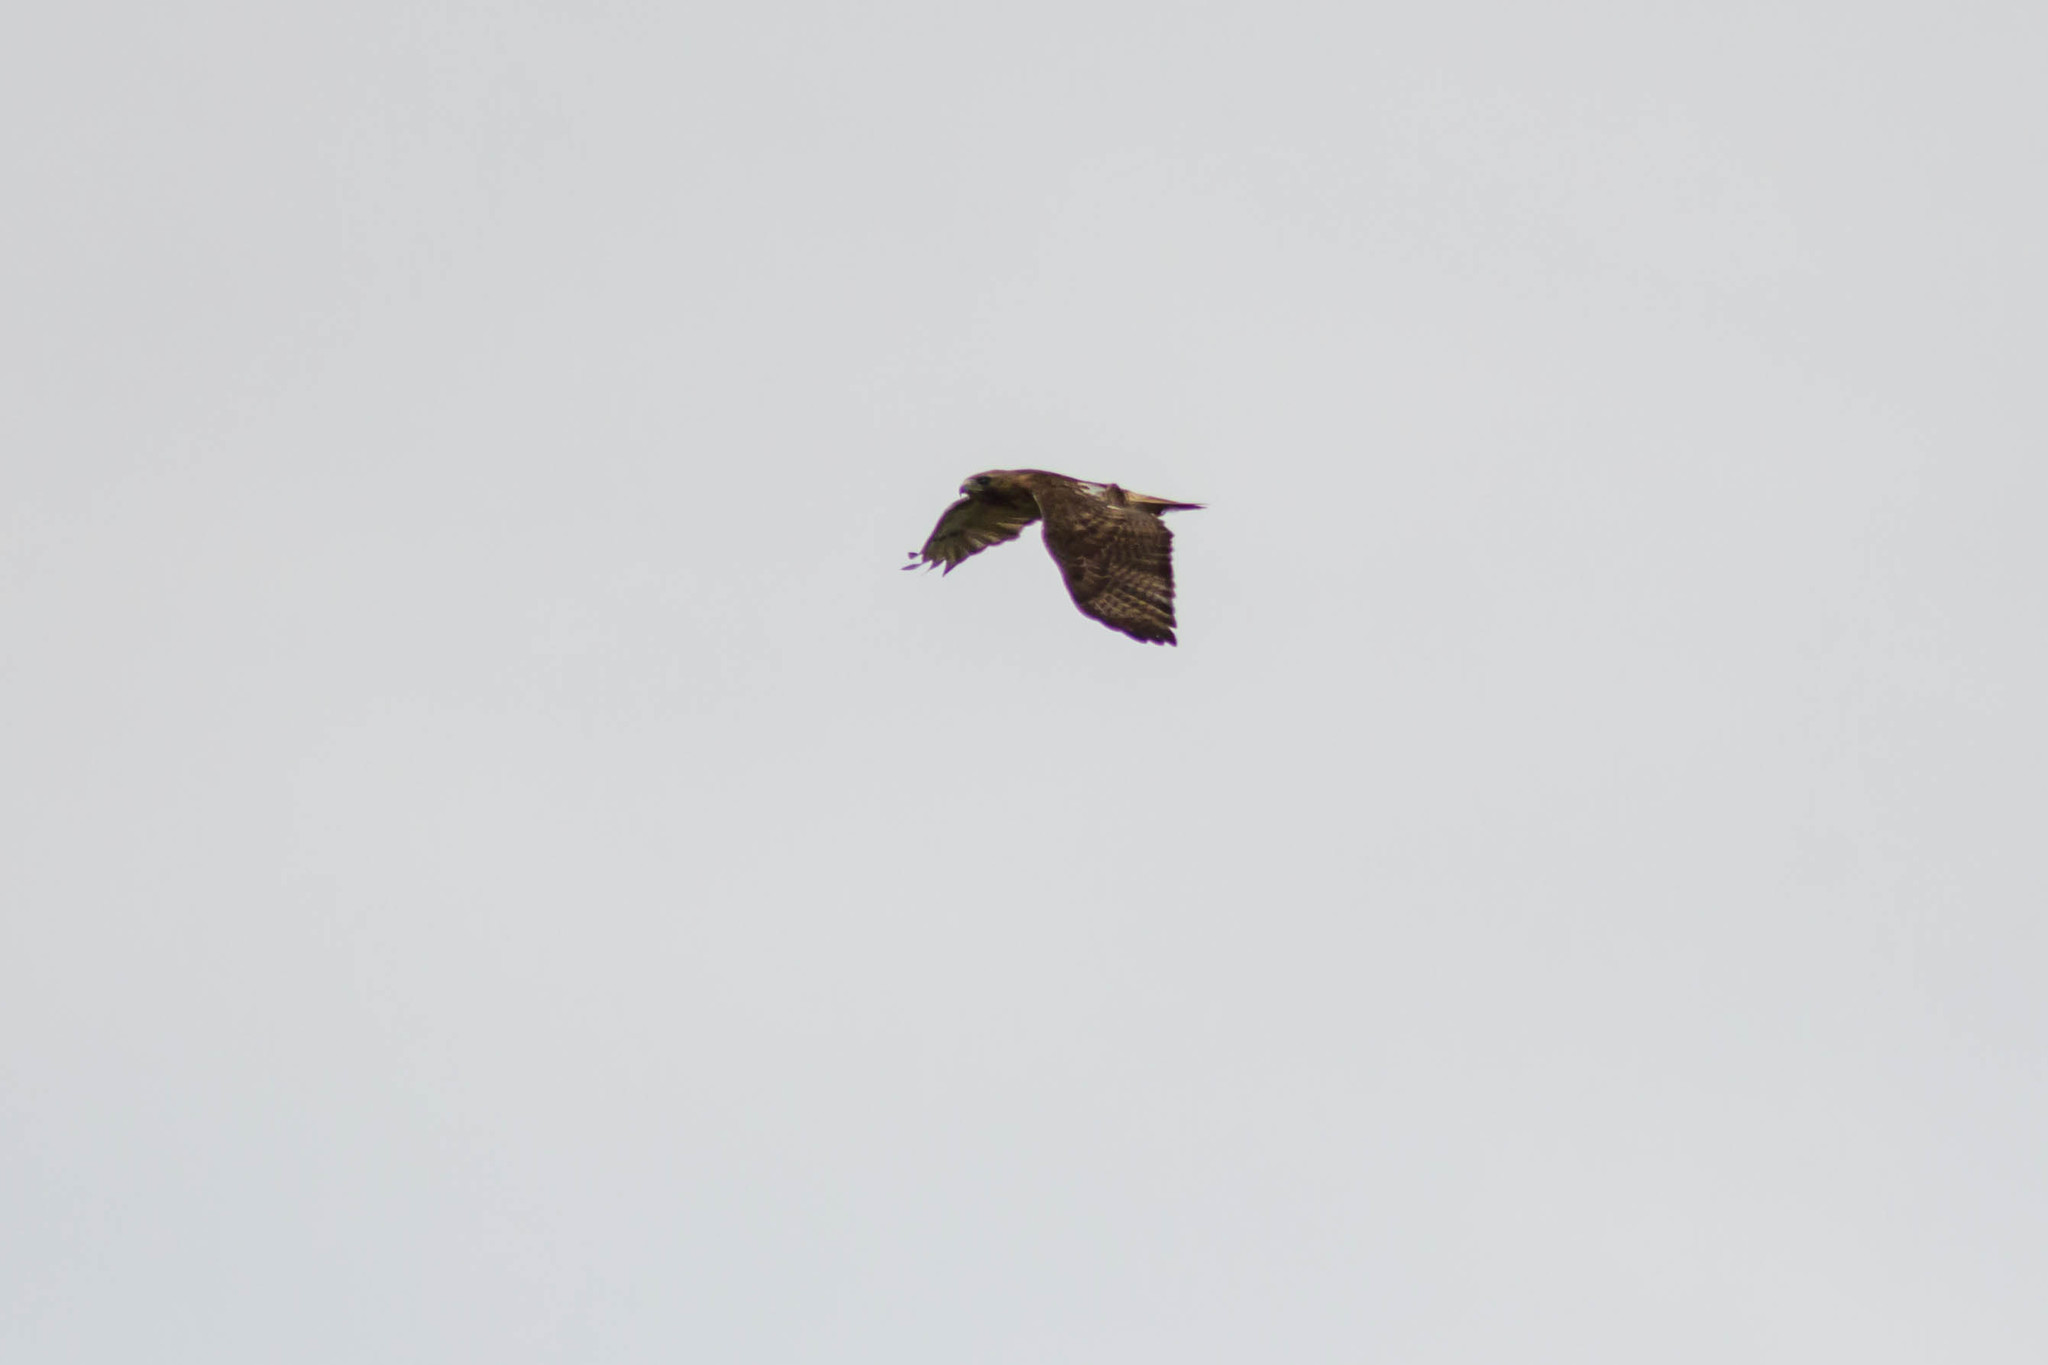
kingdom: Animalia
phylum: Chordata
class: Aves
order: Accipitriformes
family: Accipitridae
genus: Buteo
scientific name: Buteo jamaicensis
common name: Red-tailed hawk
